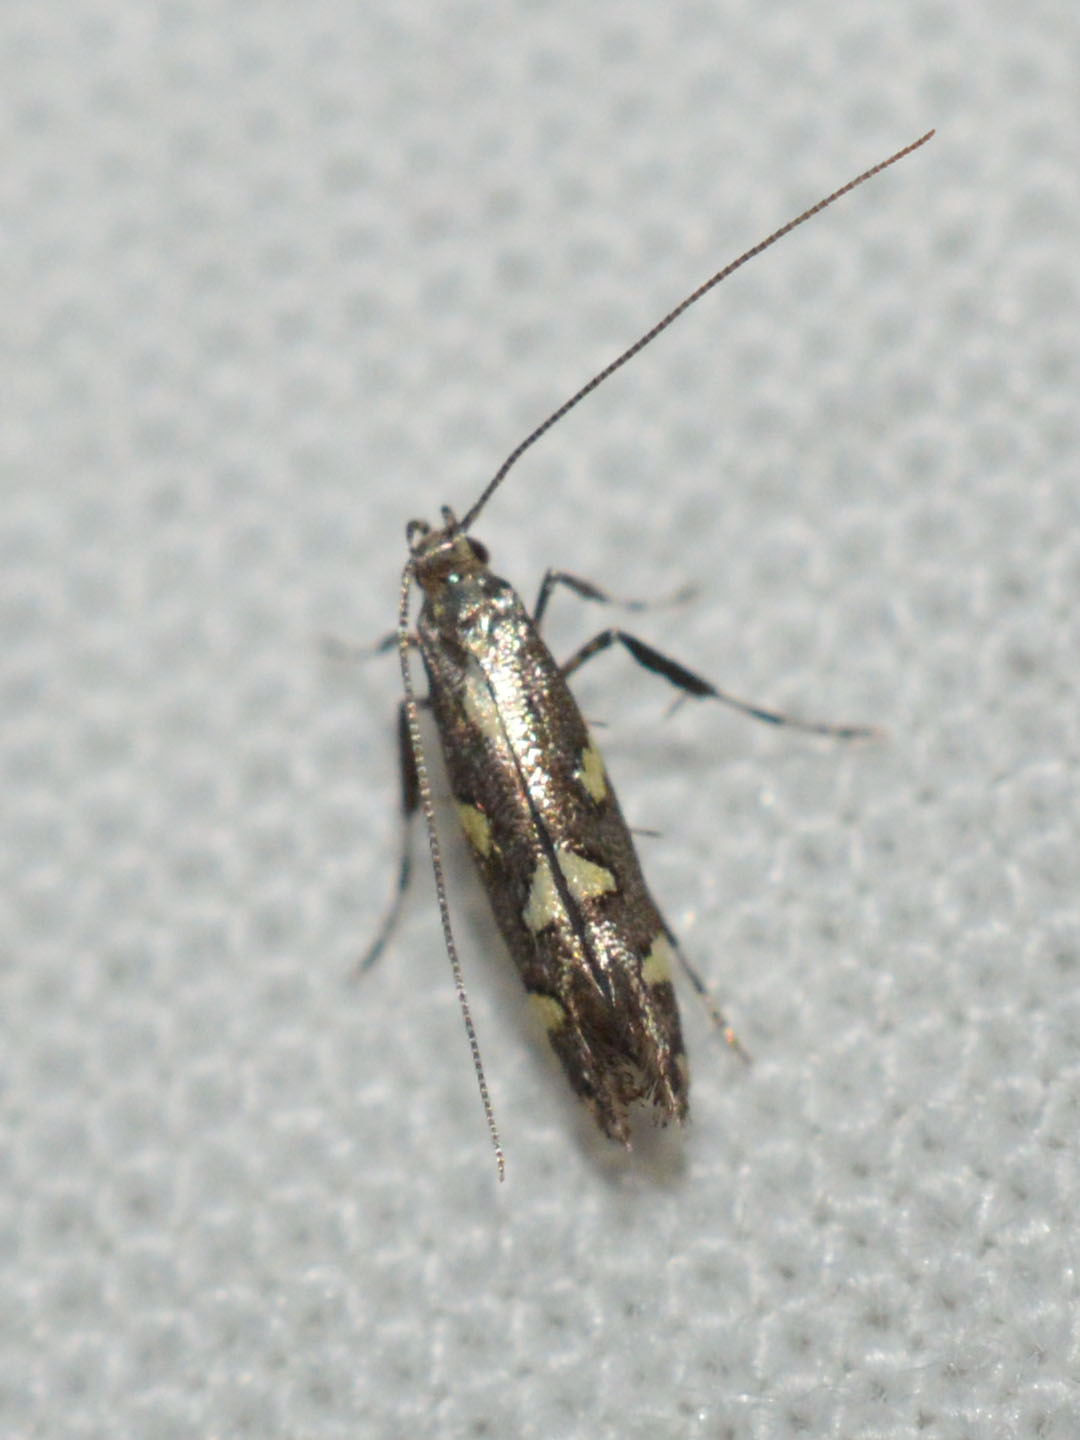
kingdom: Animalia
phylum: Arthropoda
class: Insecta
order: Lepidoptera
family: Gracillariidae
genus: Calybites
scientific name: Calybites phasianipennella
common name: Little slender
